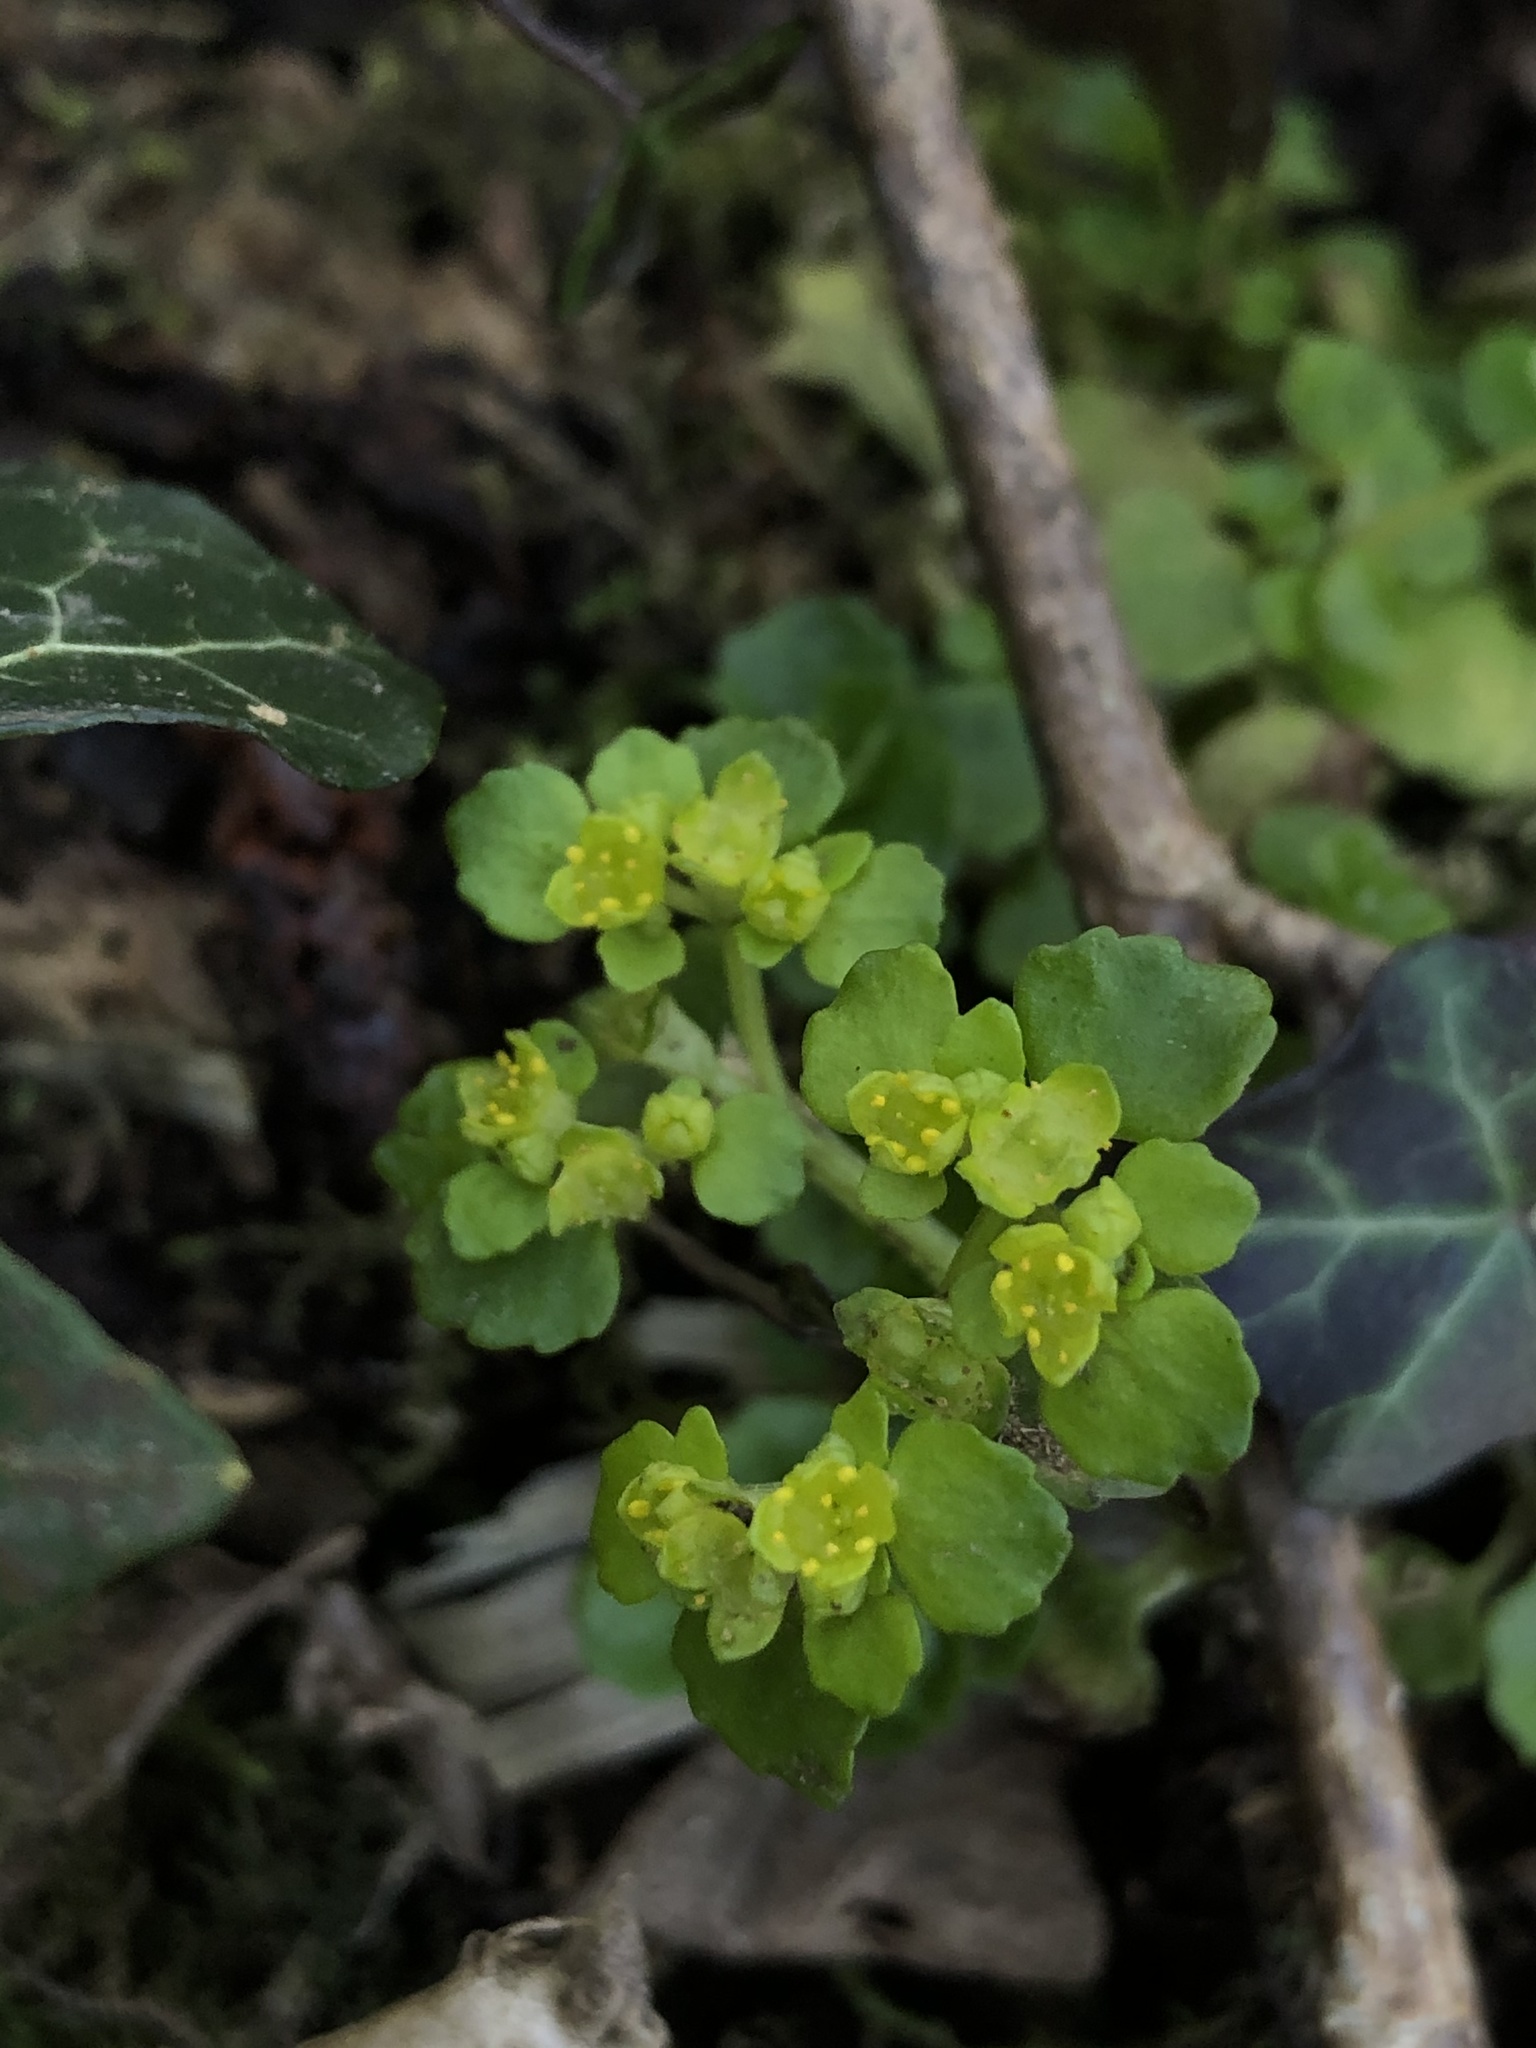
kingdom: Plantae
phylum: Tracheophyta
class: Magnoliopsida
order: Saxifragales
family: Saxifragaceae
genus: Chrysosplenium
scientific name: Chrysosplenium oppositifolium
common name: Opposite-leaved golden-saxifrage
